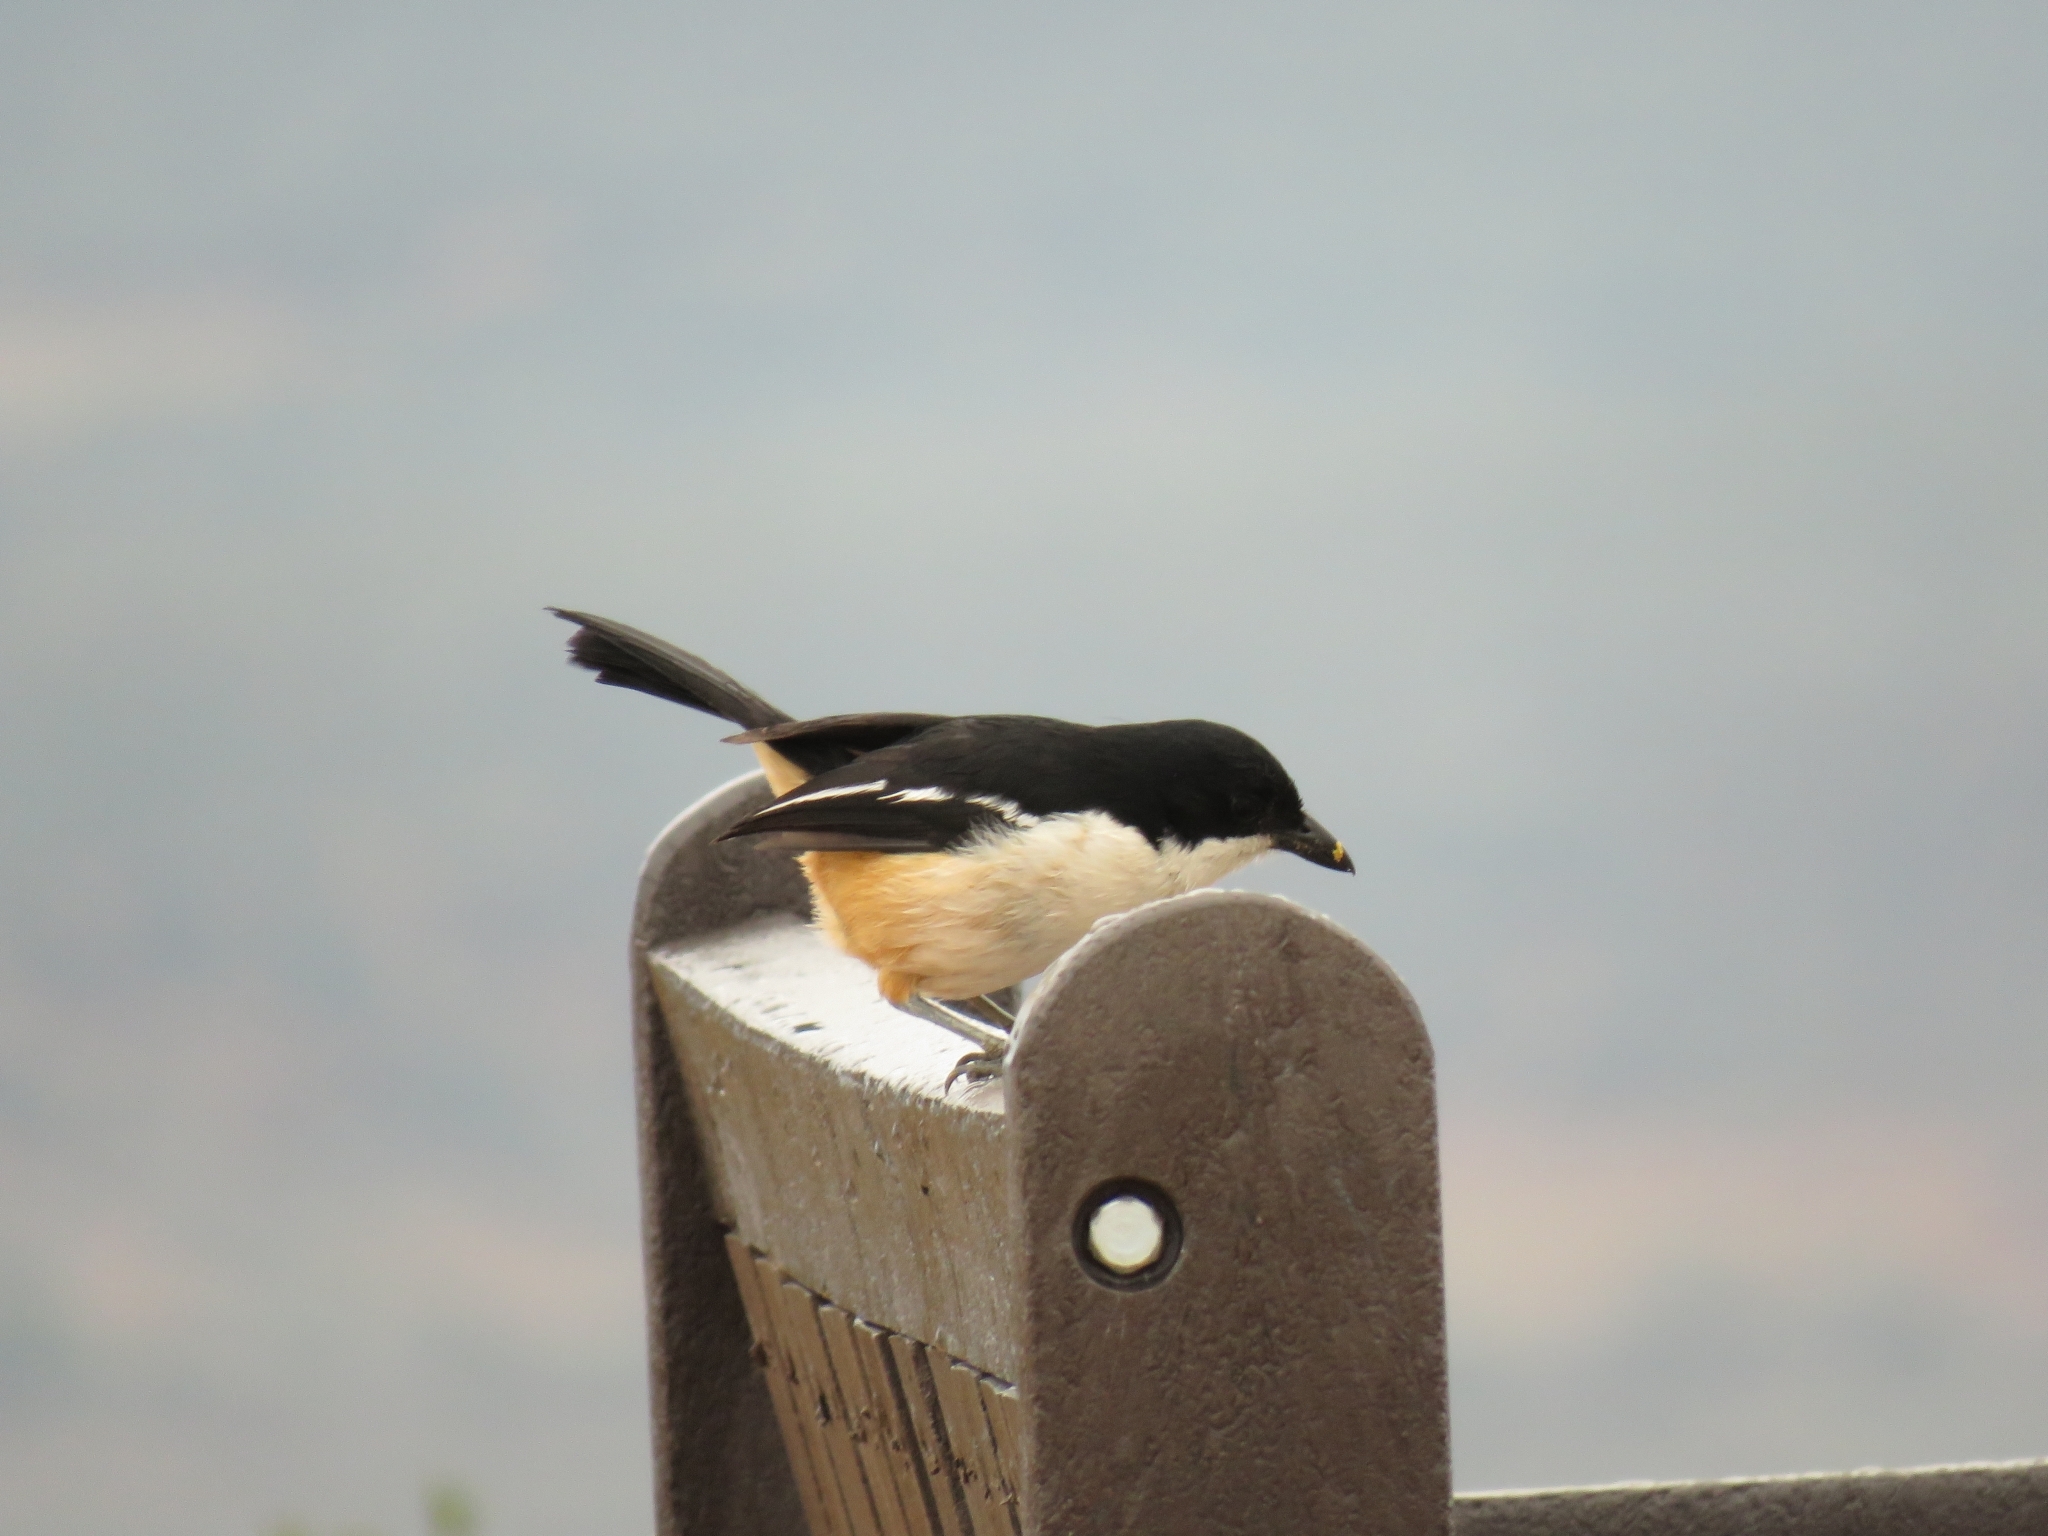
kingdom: Animalia
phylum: Chordata
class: Aves
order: Passeriformes
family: Malaconotidae
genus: Laniarius
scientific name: Laniarius ferrugineus
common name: Southern boubou
